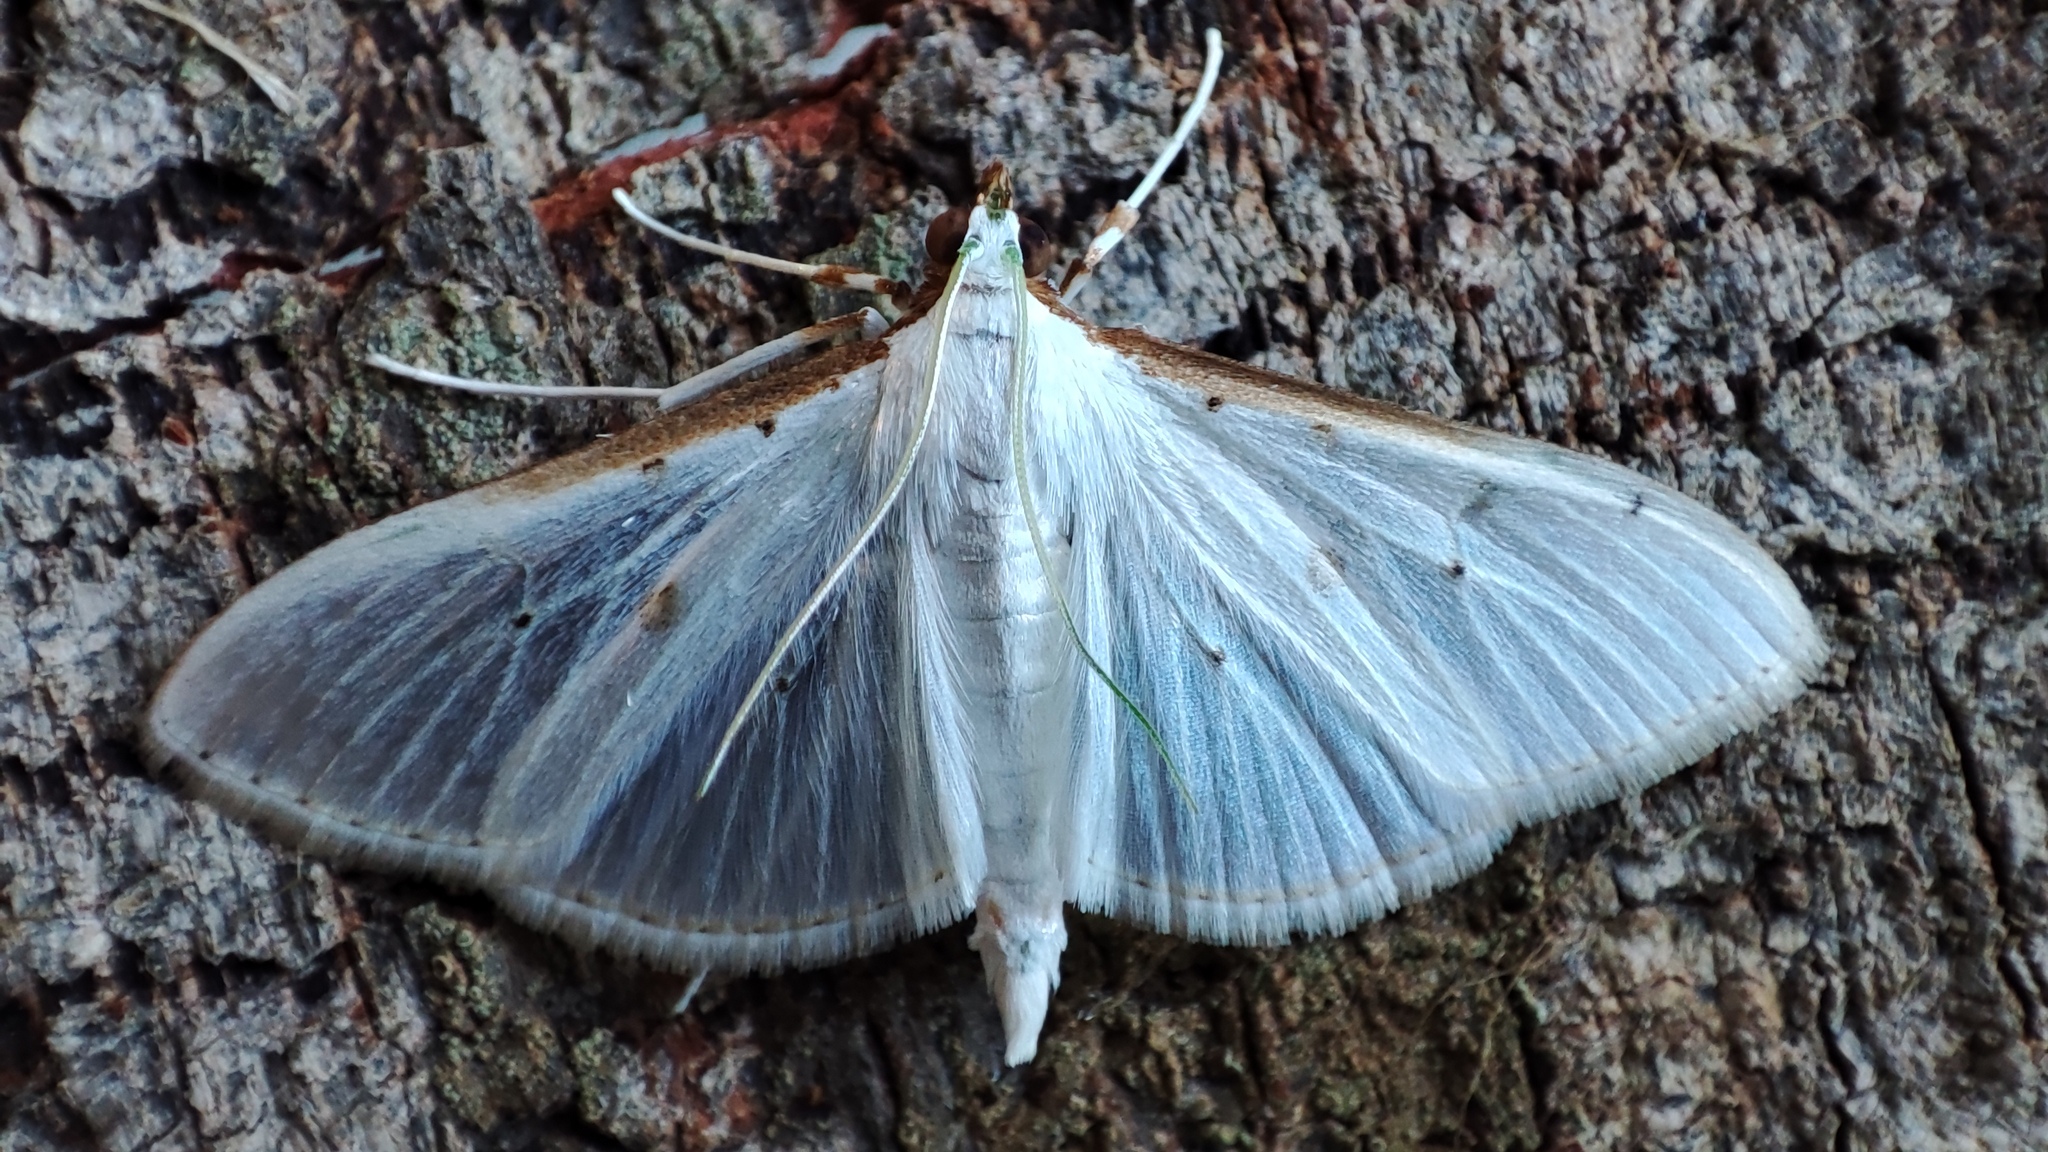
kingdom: Animalia
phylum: Arthropoda
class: Insecta
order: Lepidoptera
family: Crambidae
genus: Palpita
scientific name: Palpita vitrealis
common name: Olive-tree pearl
